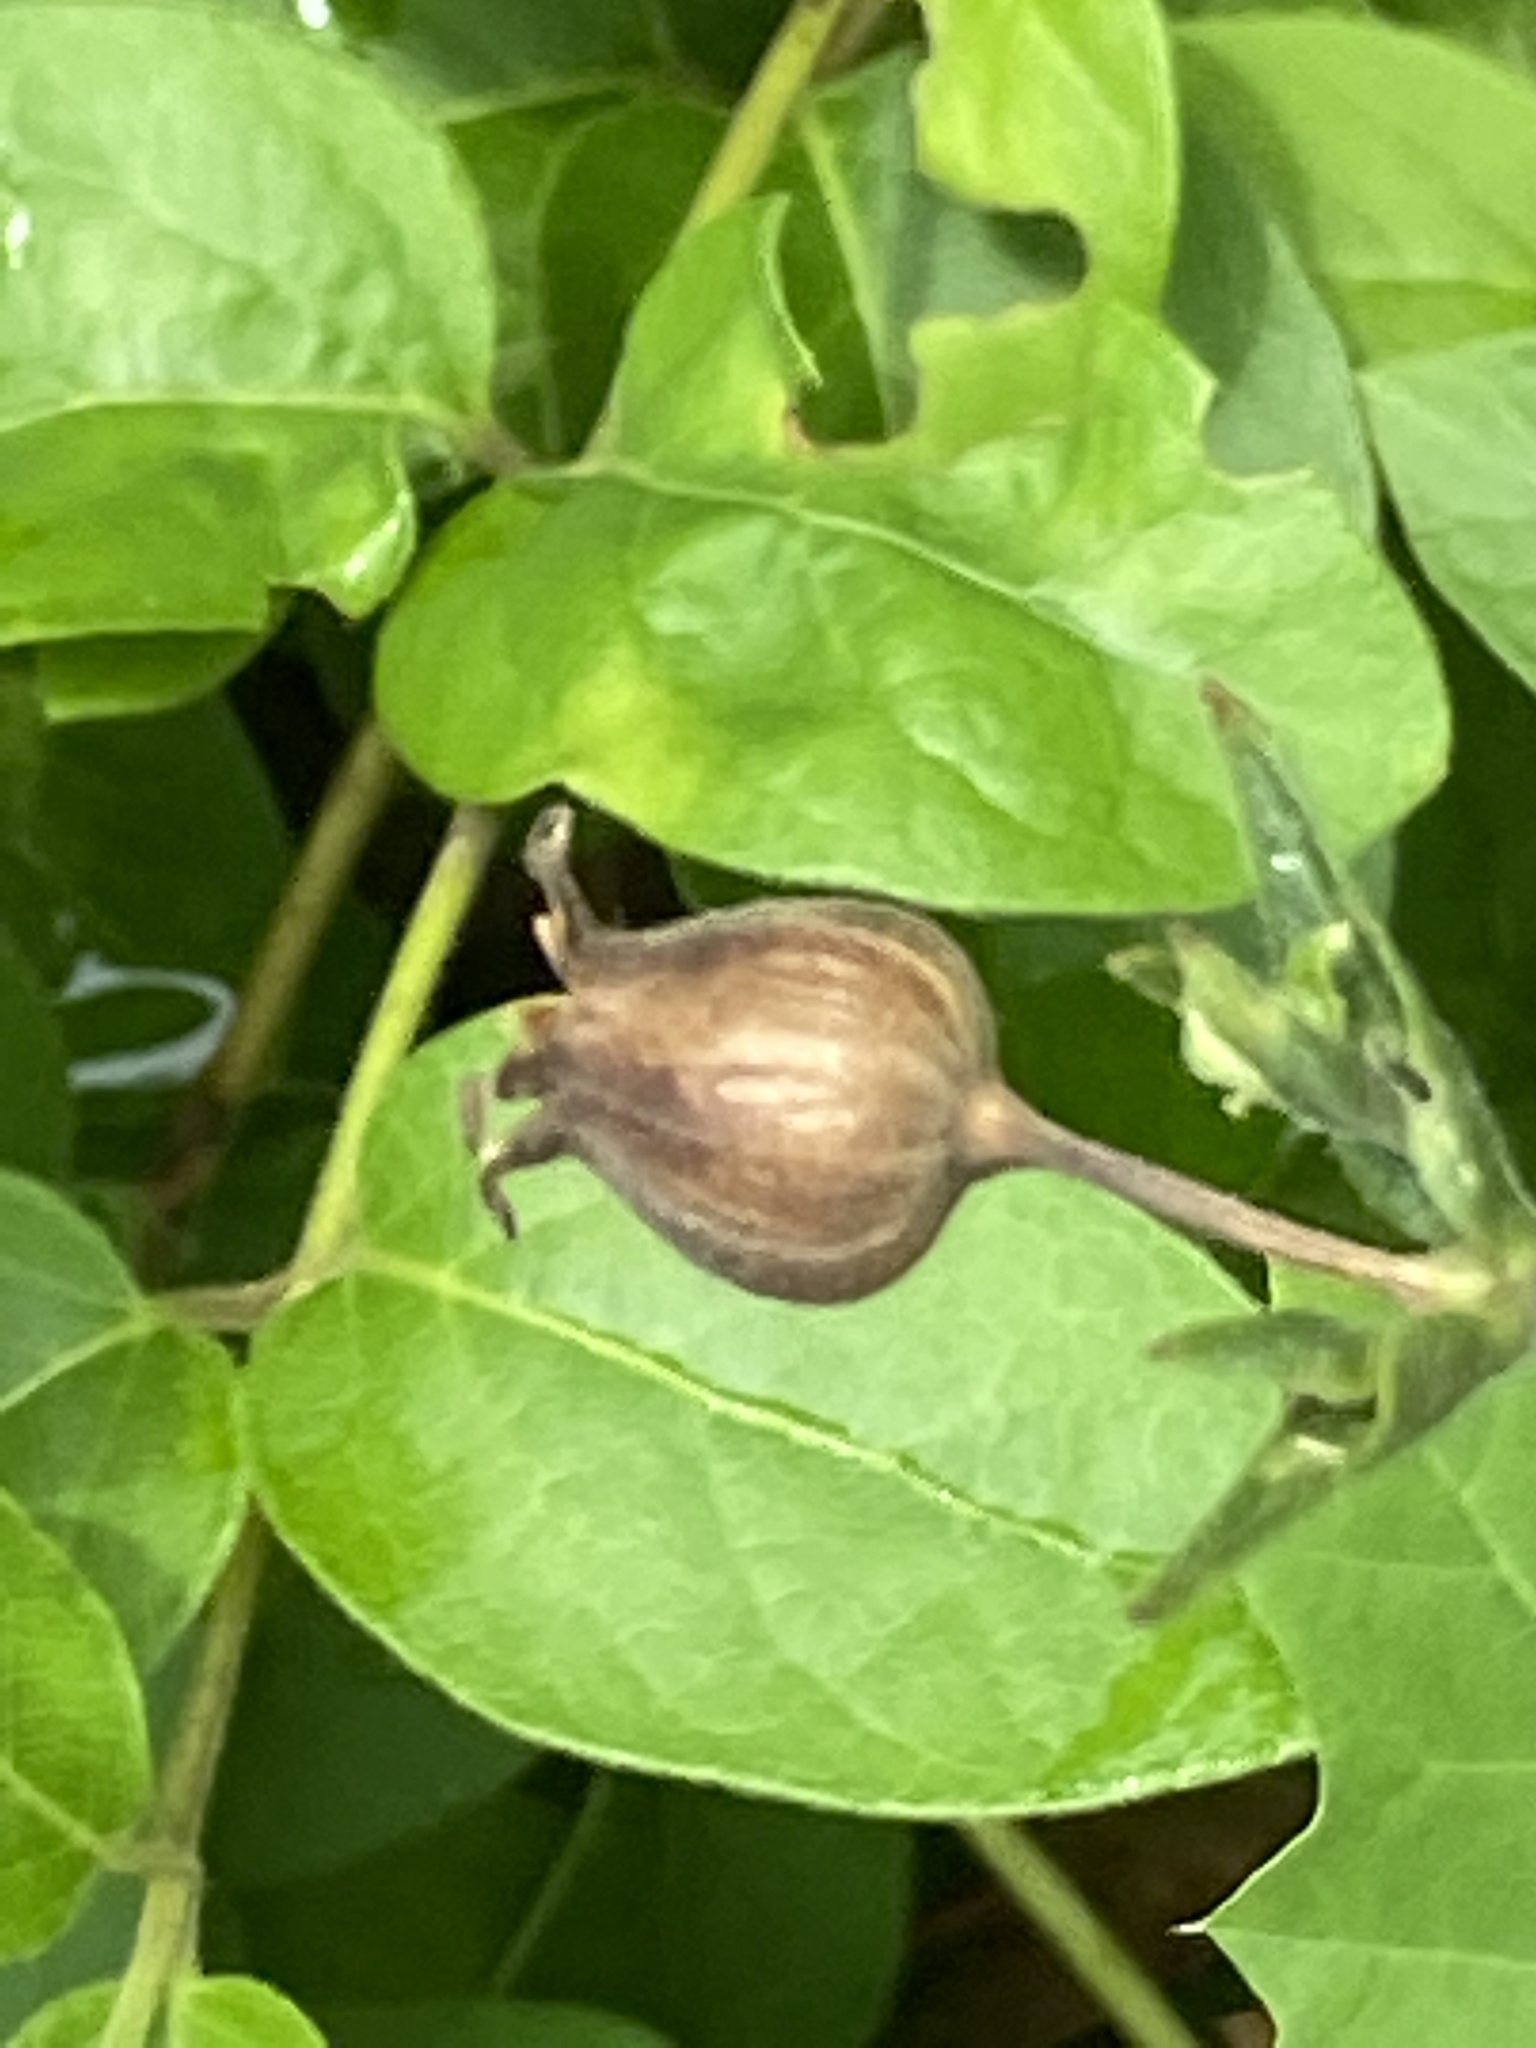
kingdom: Plantae
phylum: Tracheophyta
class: Magnoliopsida
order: Caryophyllales
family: Caryophyllaceae
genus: Silene
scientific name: Silene latifolia
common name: White campion
